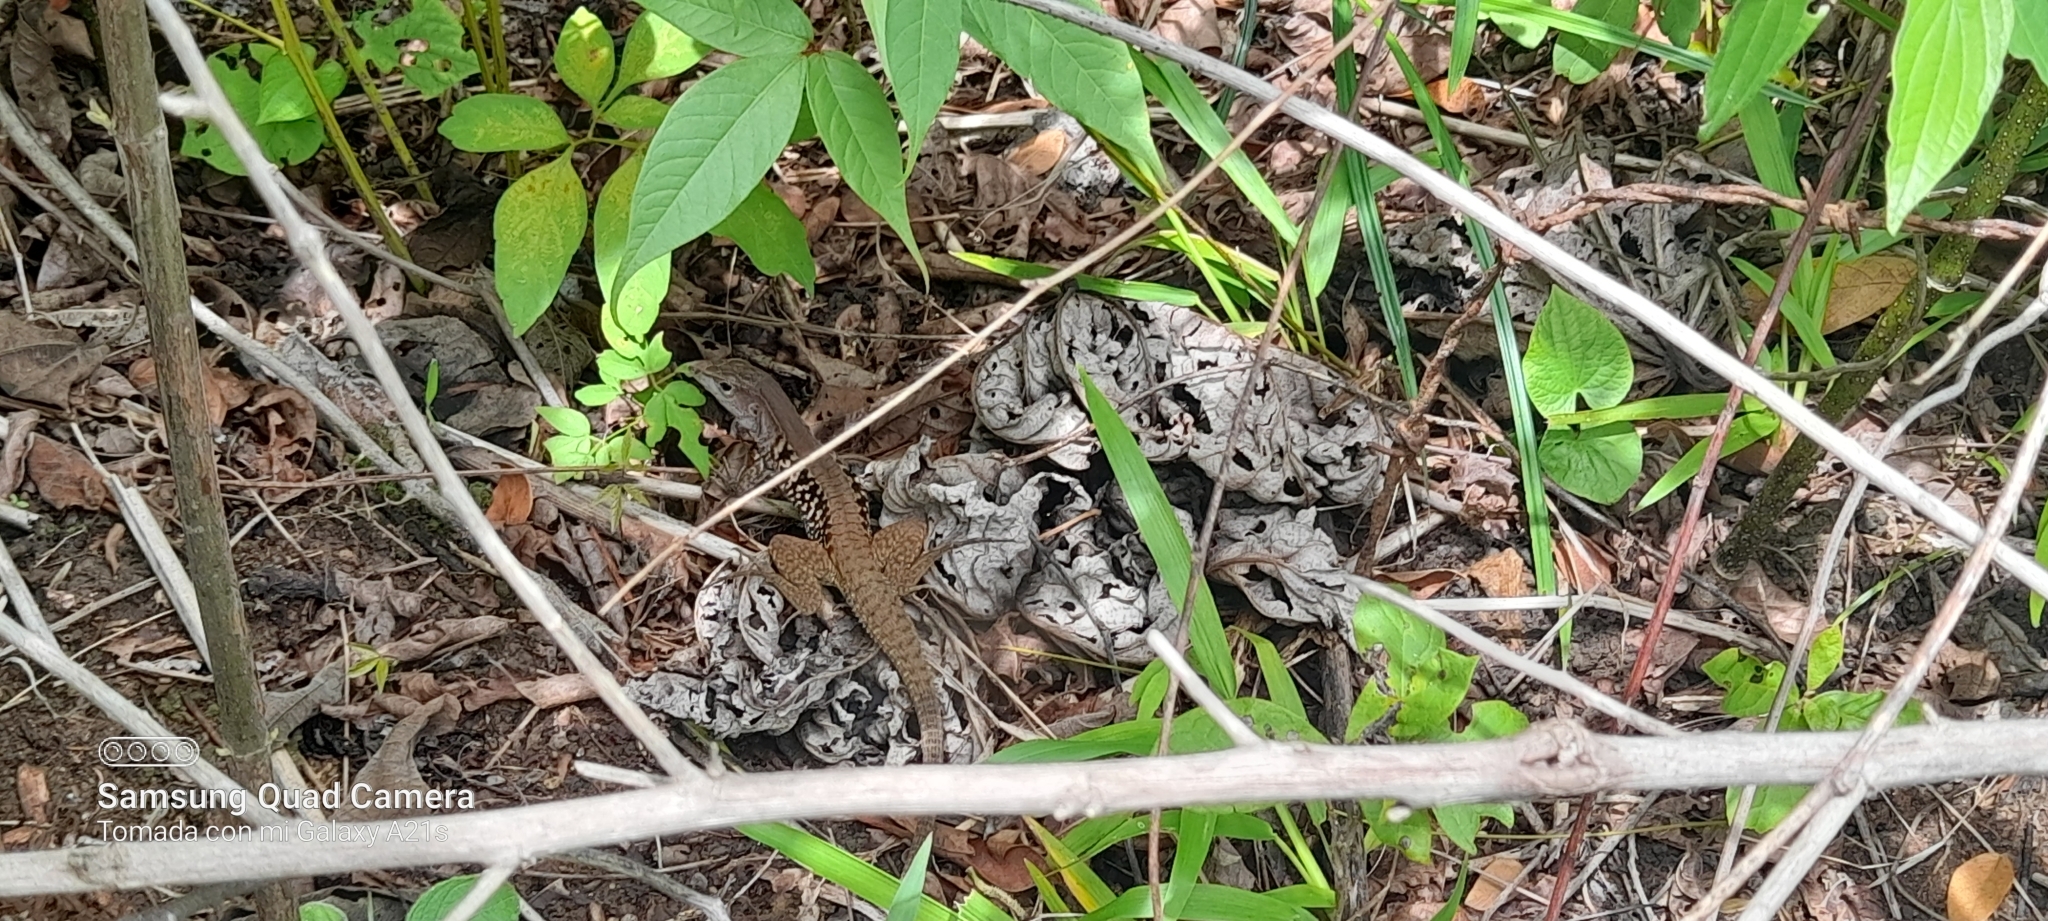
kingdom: Animalia
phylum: Chordata
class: Squamata
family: Teiidae
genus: Holcosus
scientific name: Holcosus leptophrys
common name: Delicate ameiva
